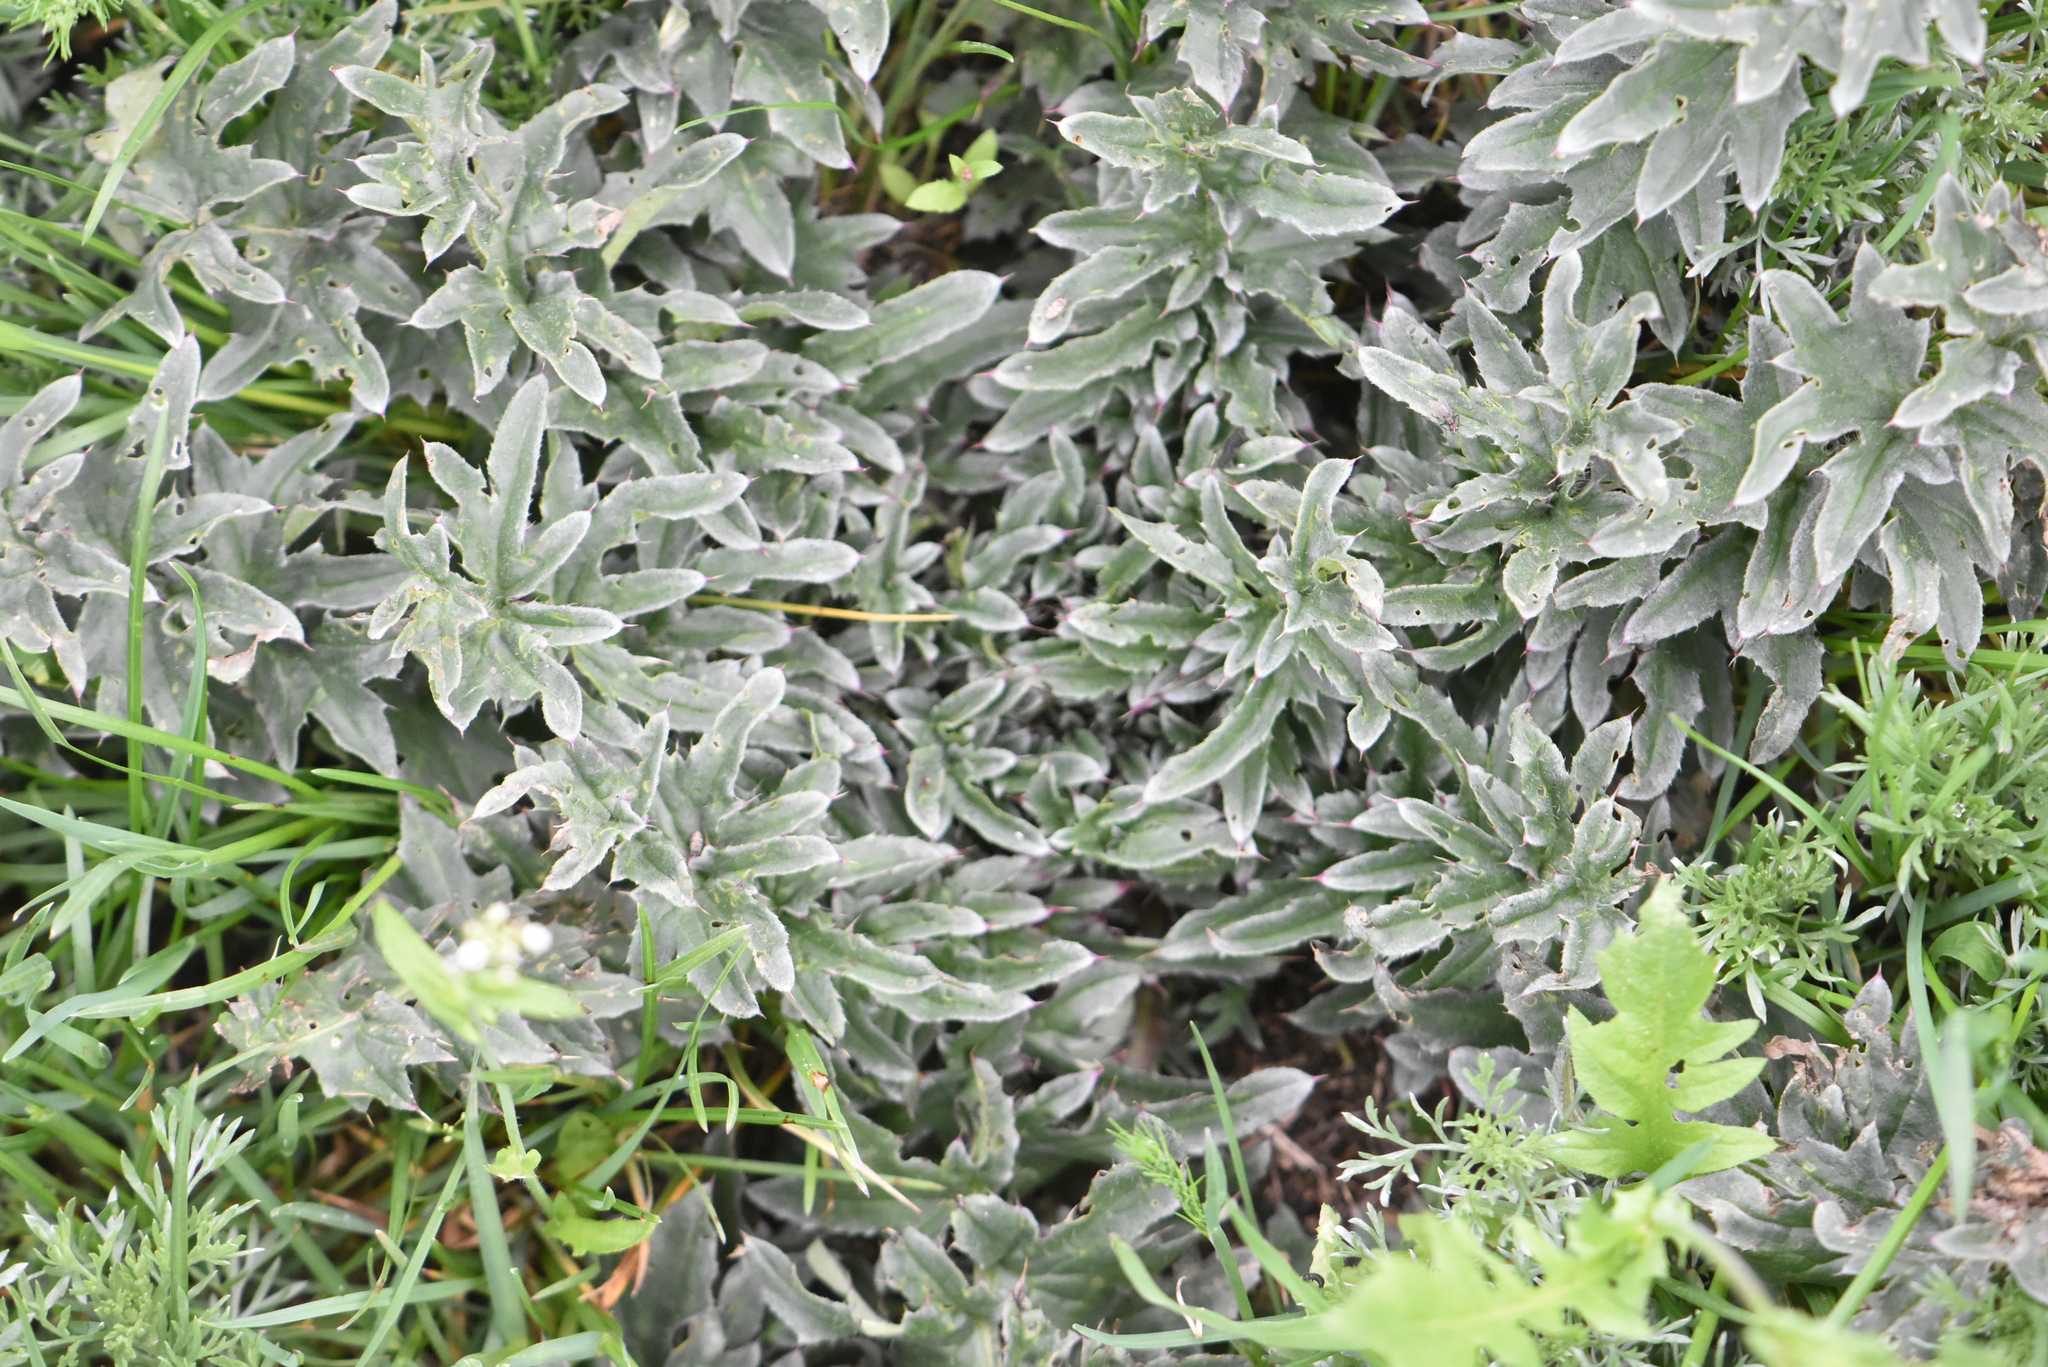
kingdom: Plantae
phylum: Tracheophyta
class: Magnoliopsida
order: Asterales
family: Asteraceae
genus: Carduus
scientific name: Carduus acanthoides
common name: Plumeless thistle
